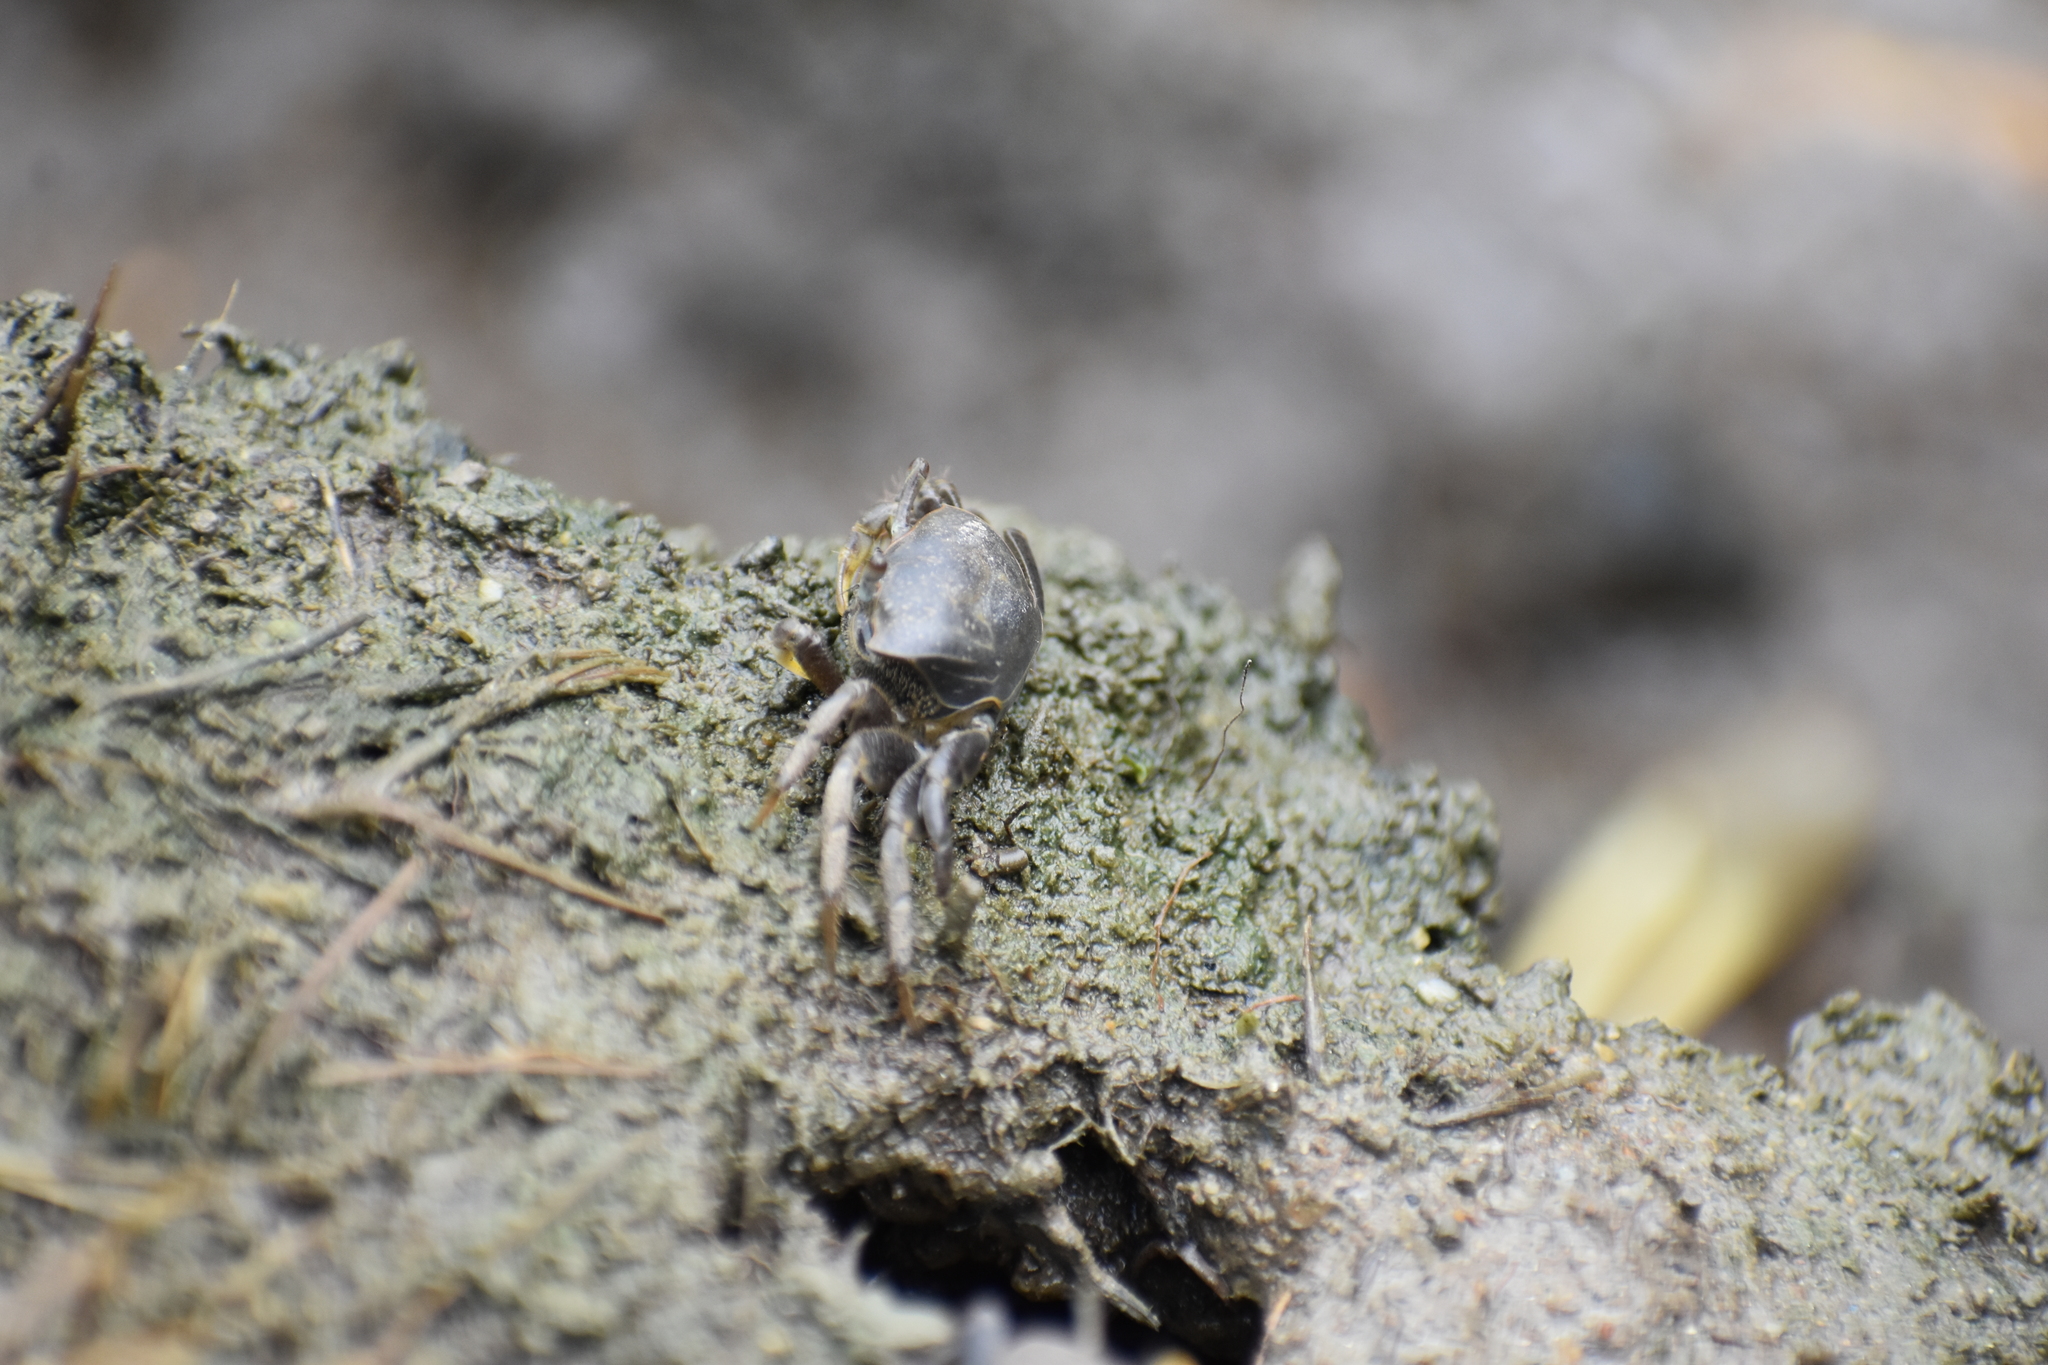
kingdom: Animalia
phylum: Arthropoda
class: Malacostraca
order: Decapoda
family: Ocypodidae
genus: Minuca
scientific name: Minuca pugnax
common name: Mud fiddler crab
